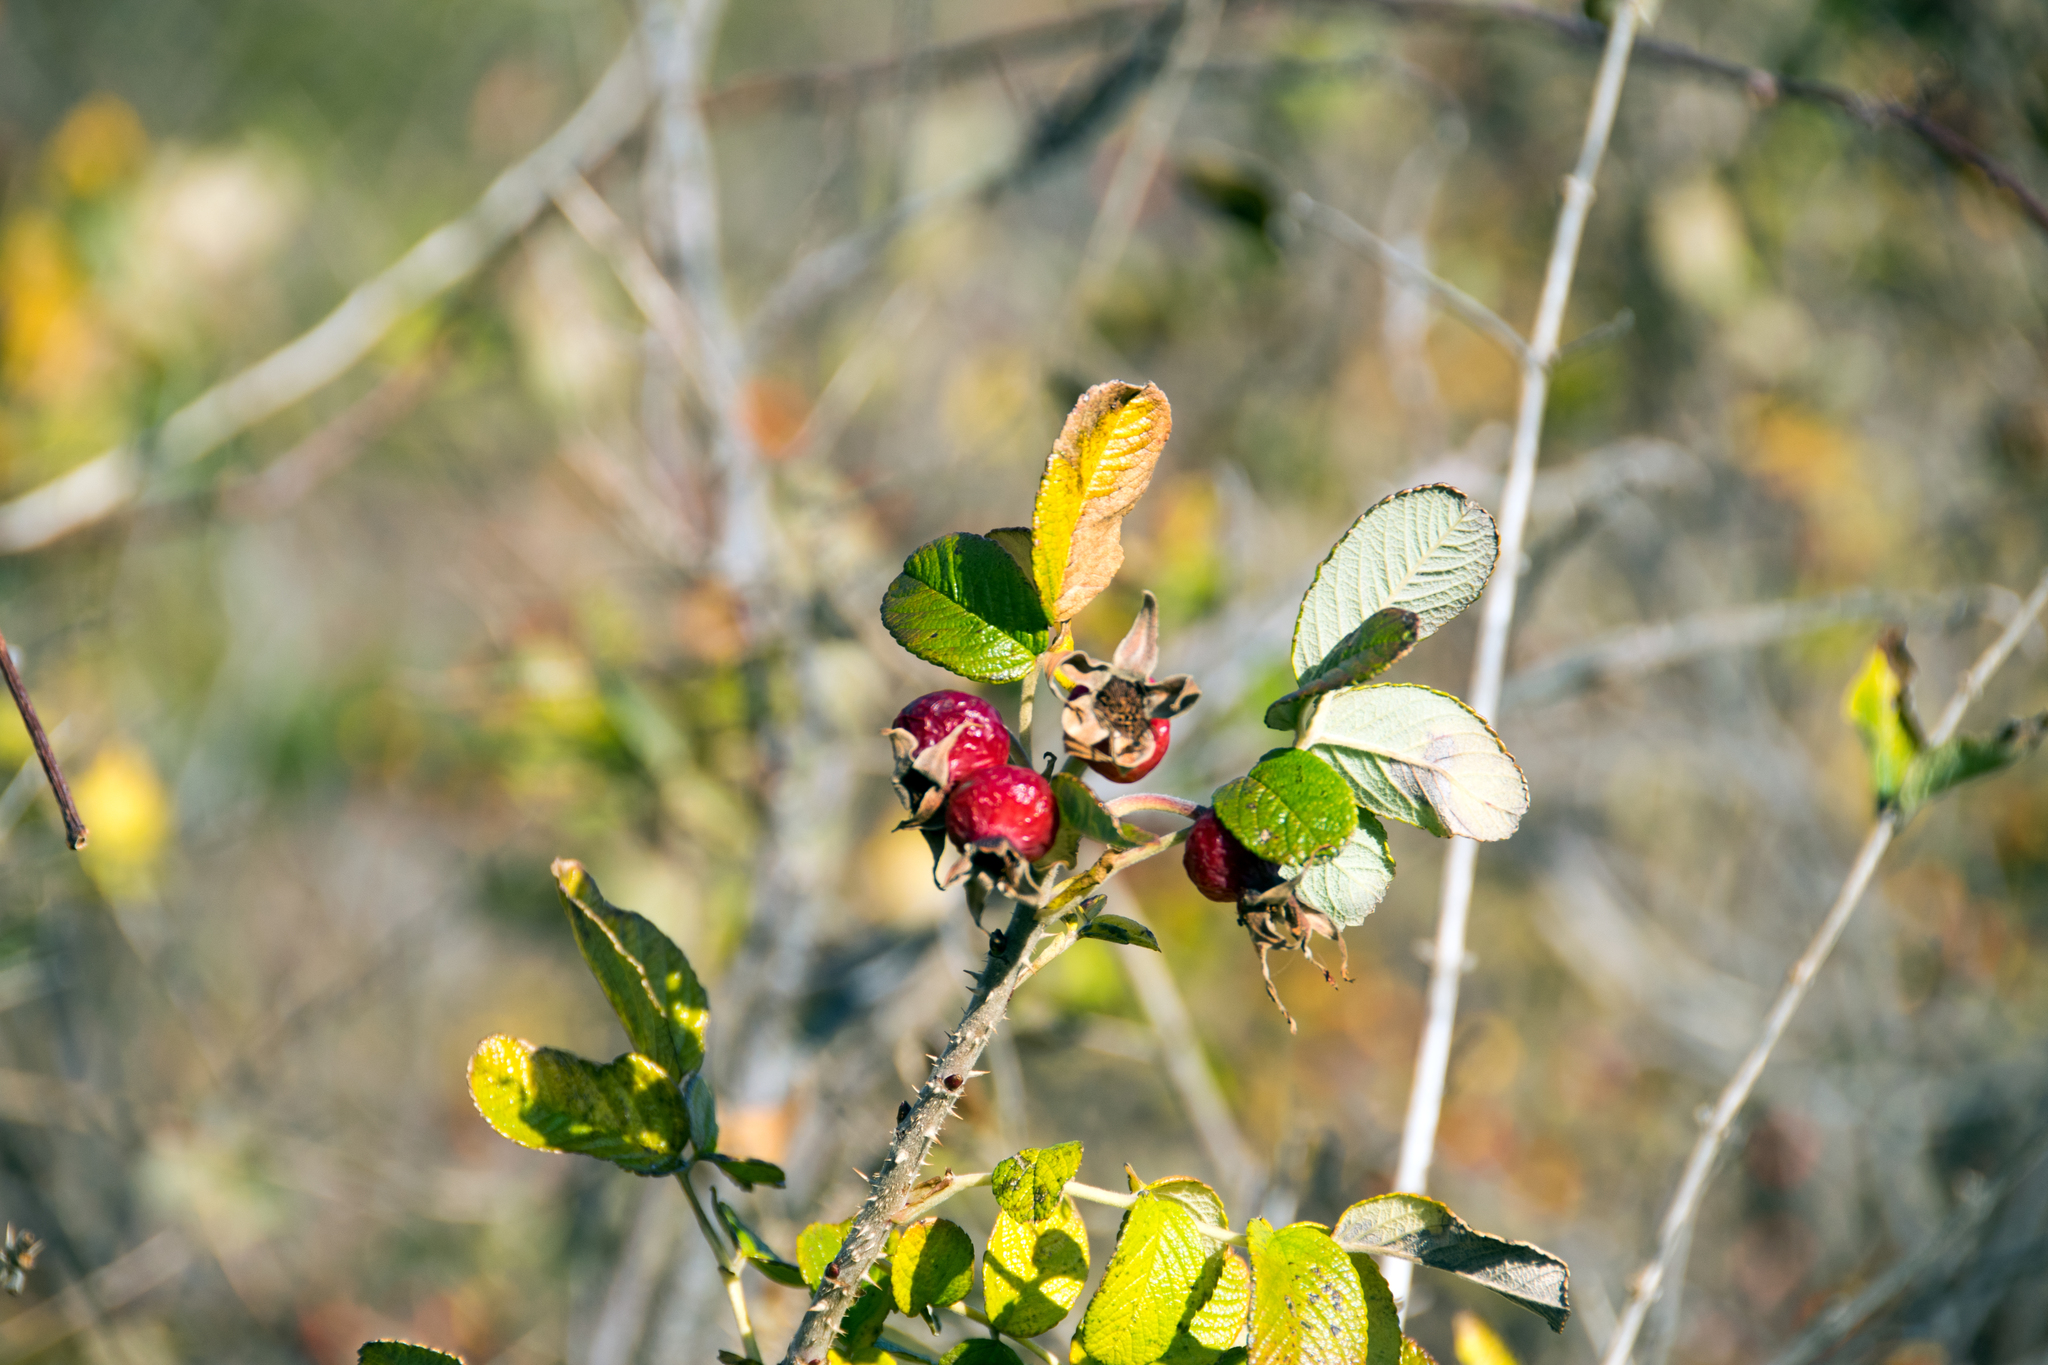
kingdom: Plantae
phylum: Tracheophyta
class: Magnoliopsida
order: Rosales
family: Rosaceae
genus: Rosa
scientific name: Rosa rugosa
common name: Japanese rose
